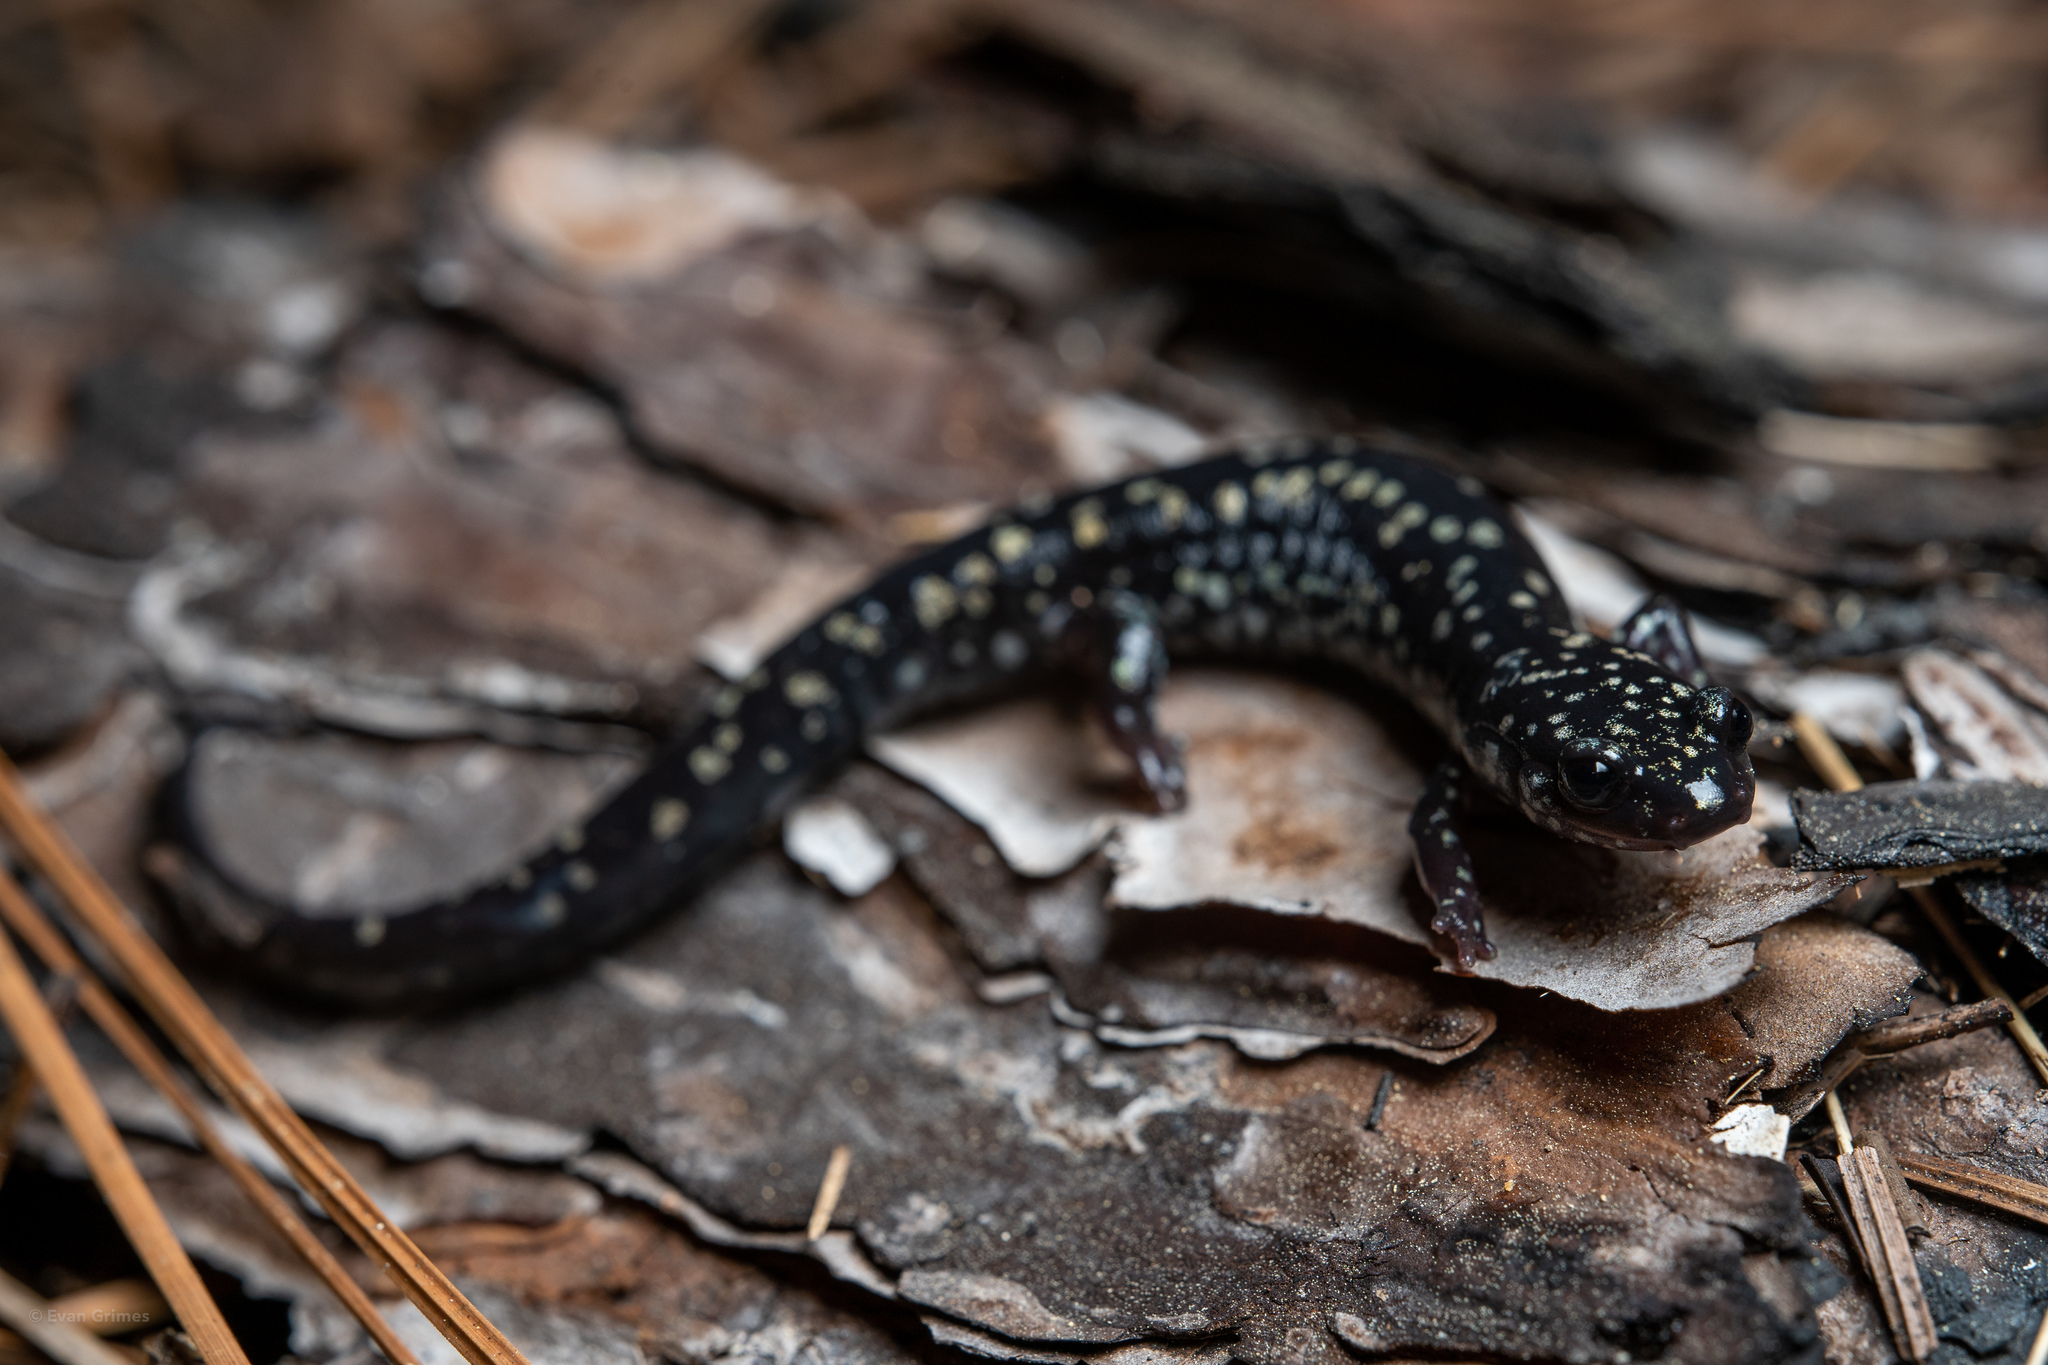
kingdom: Animalia
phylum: Chordata
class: Amphibia
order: Caudata
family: Plethodontidae
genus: Plethodon
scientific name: Plethodon grobmani
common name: Southeastern slimy salamander
